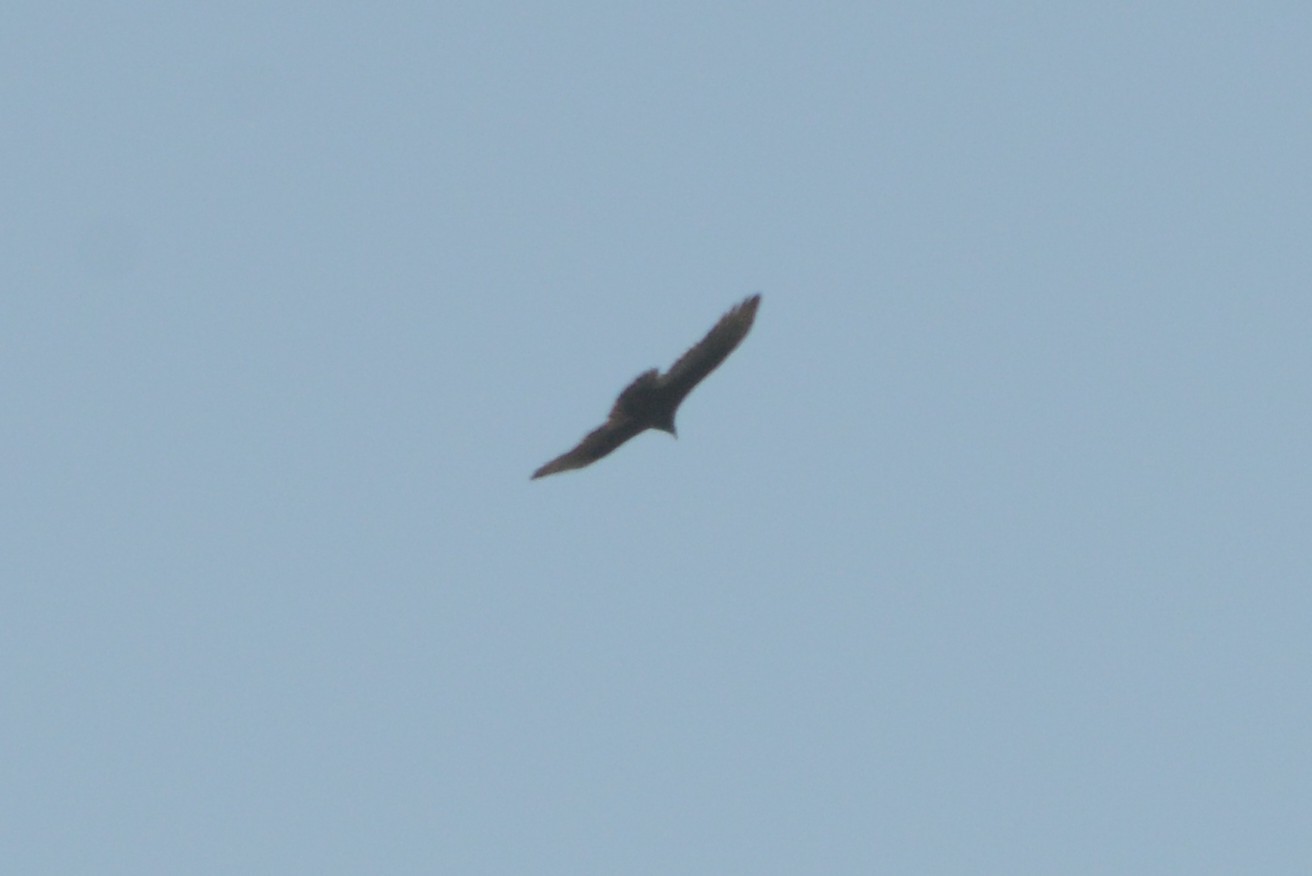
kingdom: Animalia
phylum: Chordata
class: Aves
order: Accipitriformes
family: Cathartidae
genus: Cathartes
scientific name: Cathartes aura
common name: Turkey vulture
